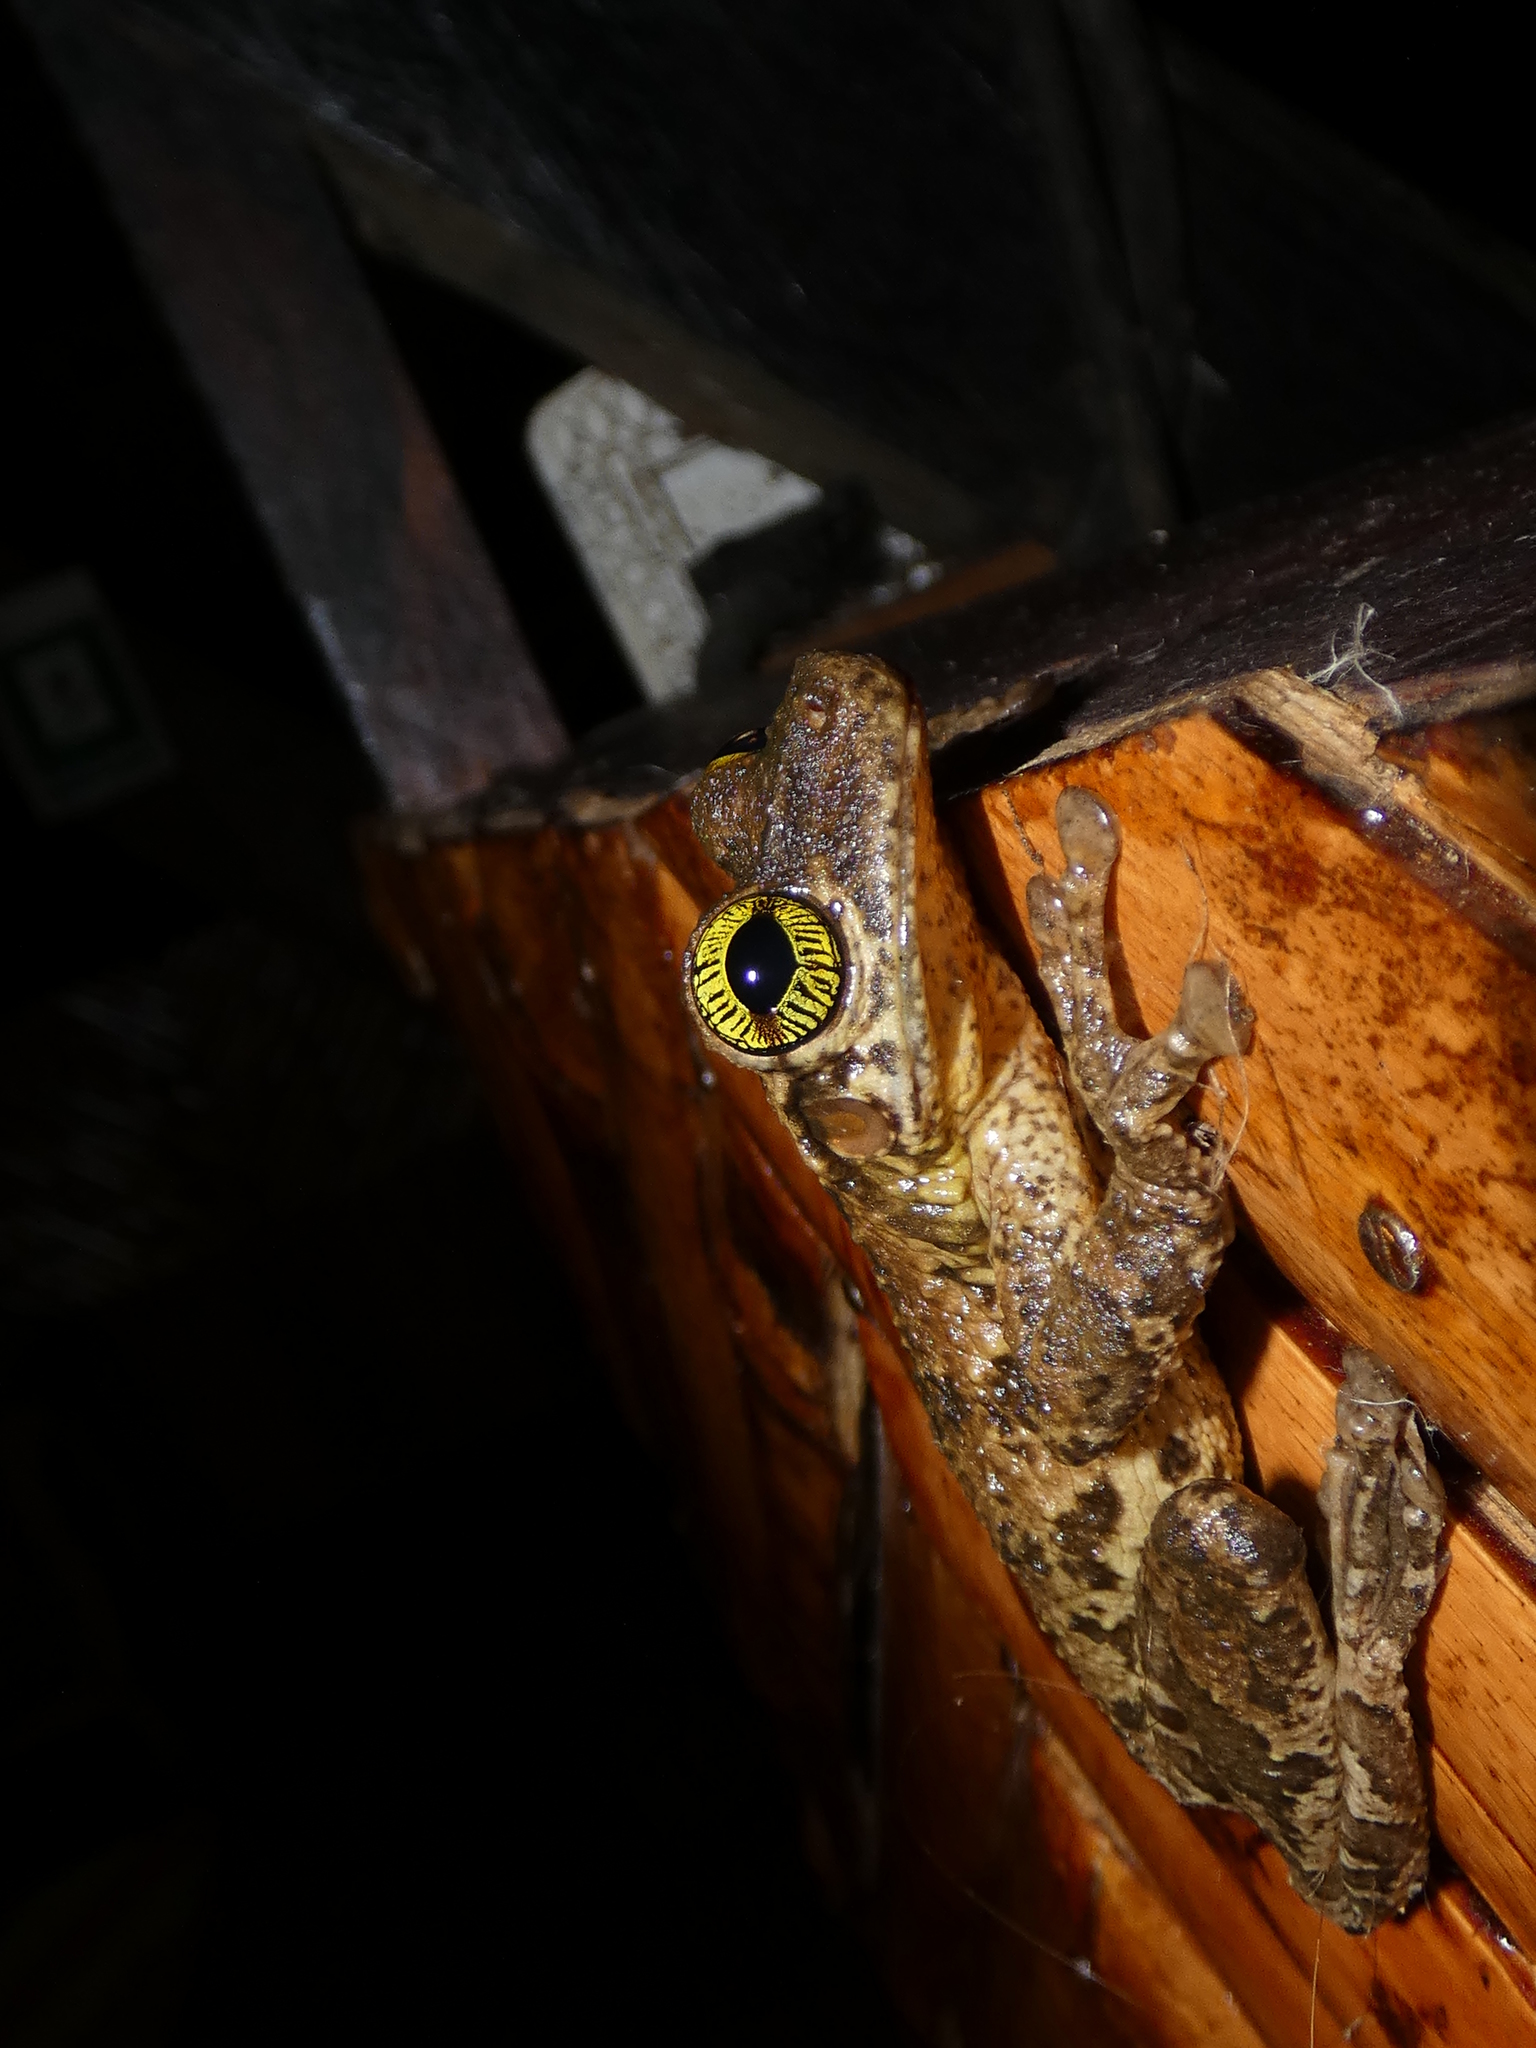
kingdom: Animalia
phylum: Chordata
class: Amphibia
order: Anura
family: Hylidae
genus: Osteocephalus
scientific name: Osteocephalus taurinus
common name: Manaus slender-legged treefrog
